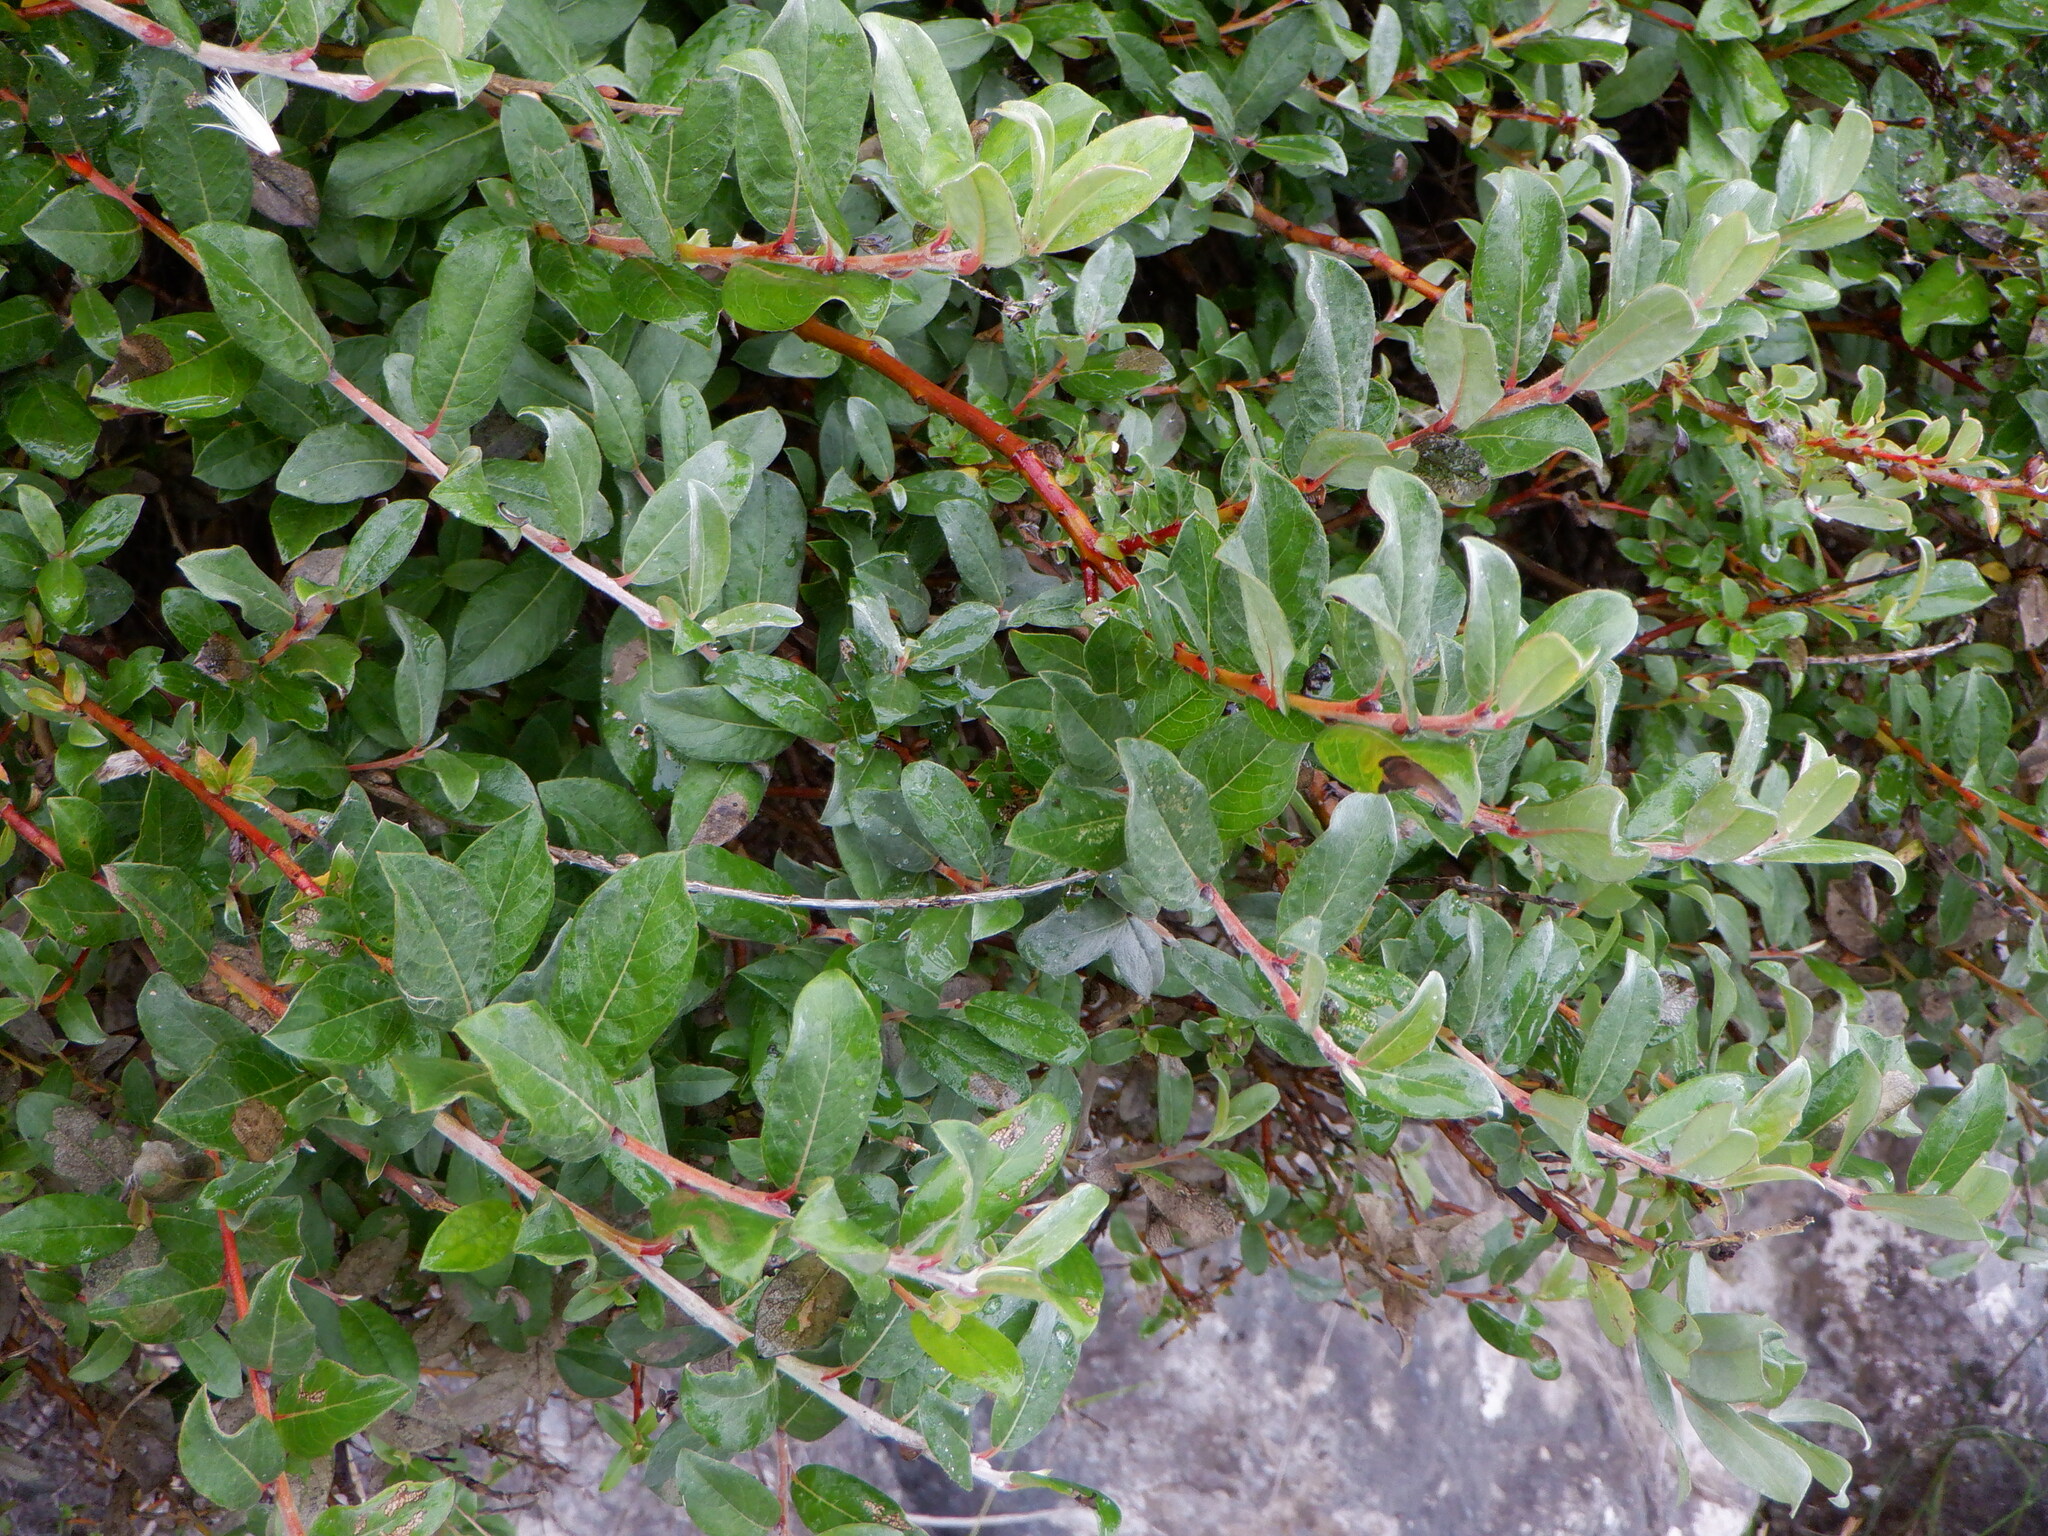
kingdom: Plantae
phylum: Tracheophyta
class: Magnoliopsida
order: Malpighiales
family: Salicaceae
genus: Salix
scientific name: Salix repens
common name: Creeping willow
